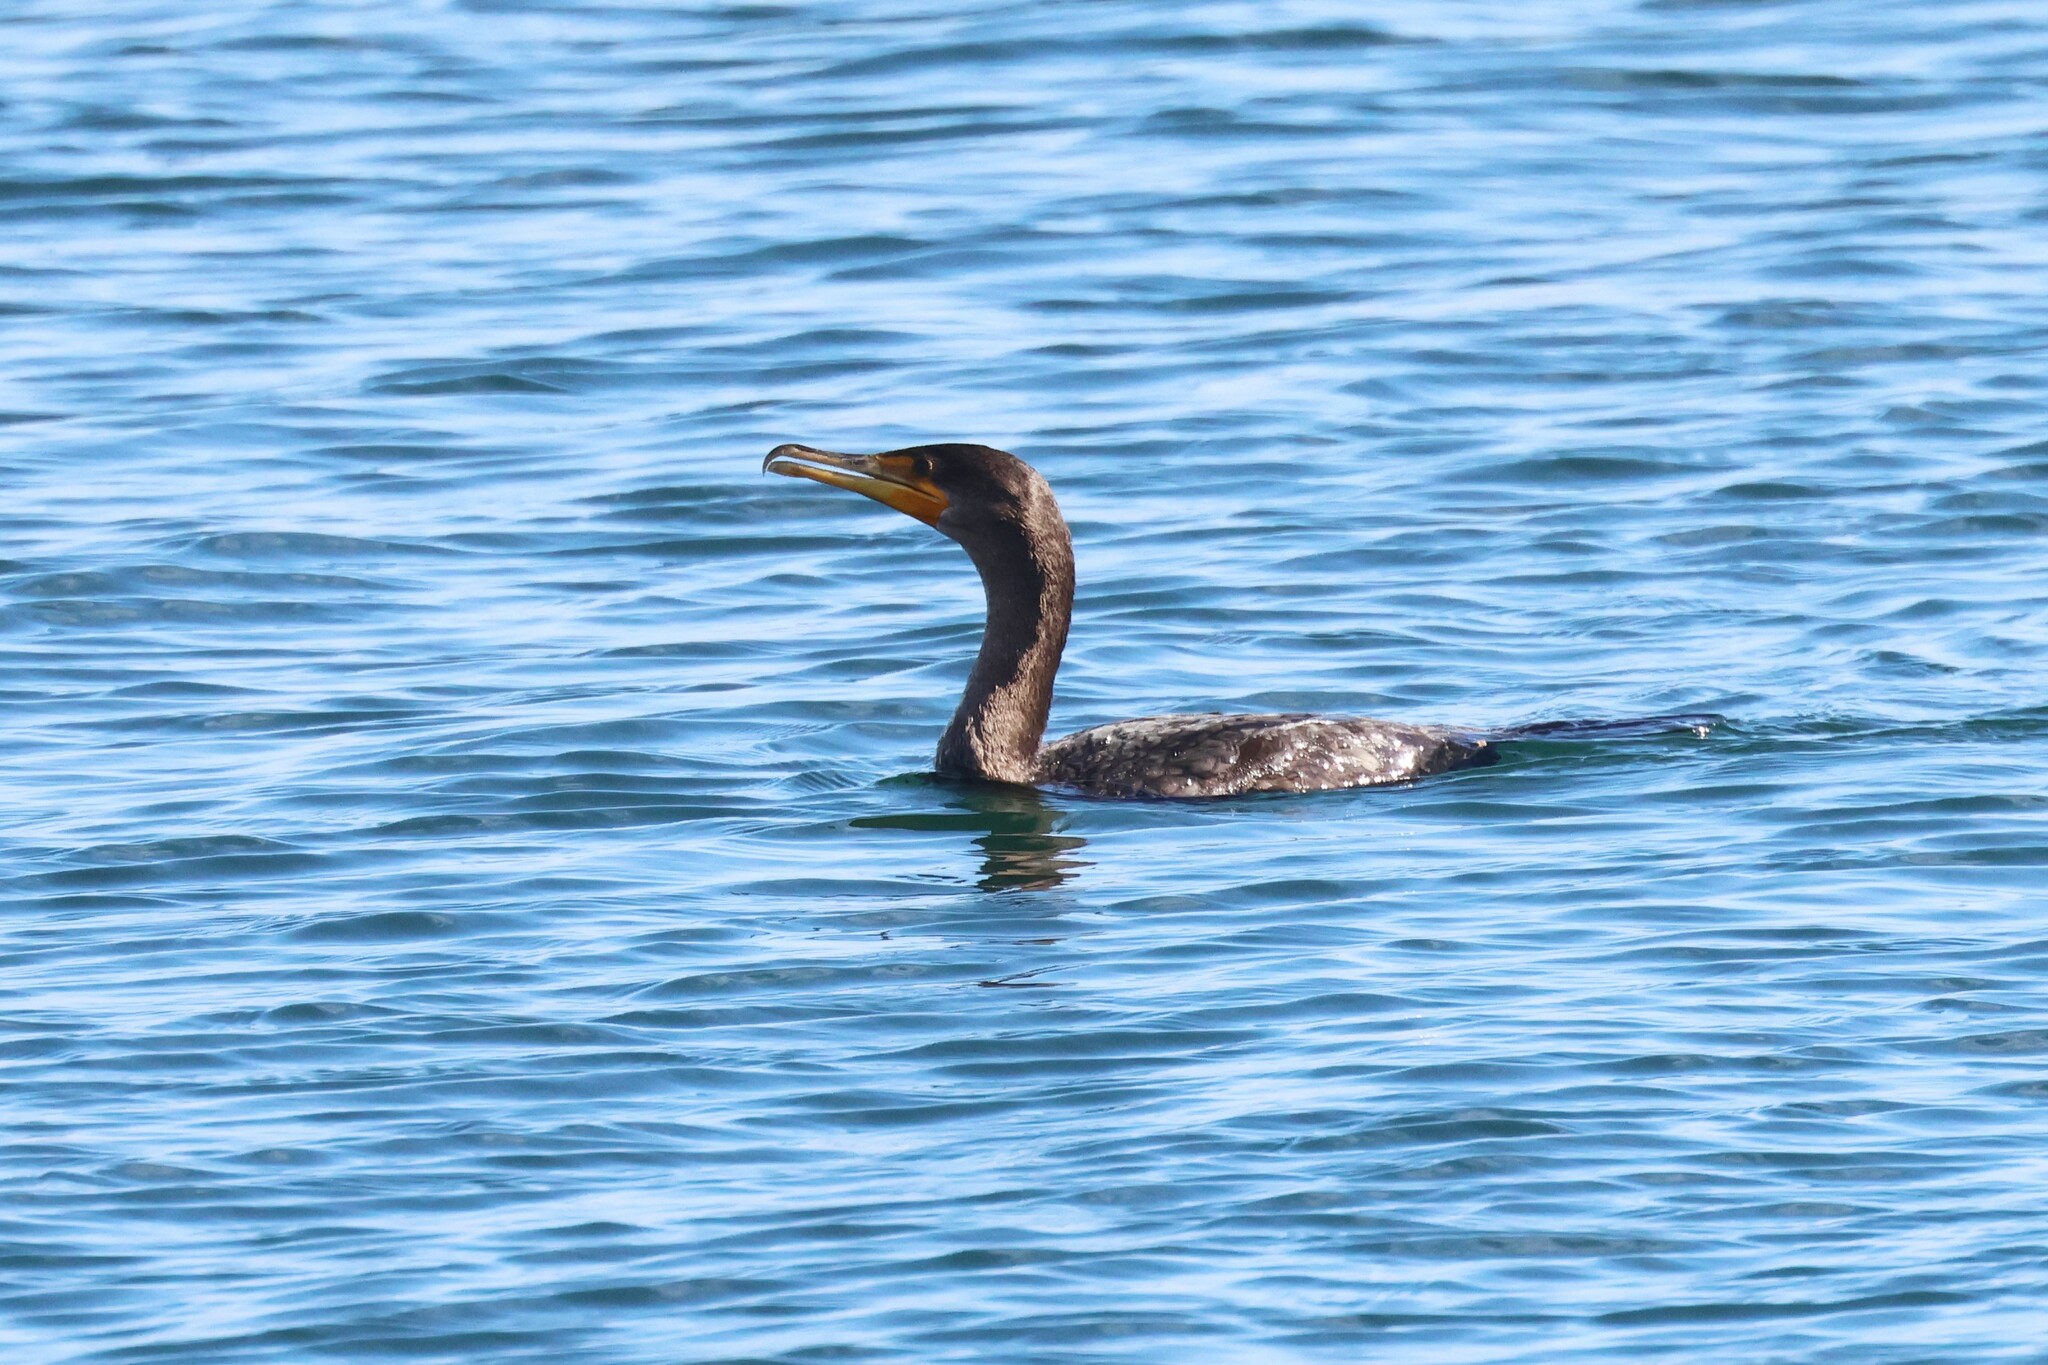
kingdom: Animalia
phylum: Chordata
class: Aves
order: Suliformes
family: Phalacrocoracidae
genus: Phalacrocorax
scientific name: Phalacrocorax auritus
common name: Double-crested cormorant
